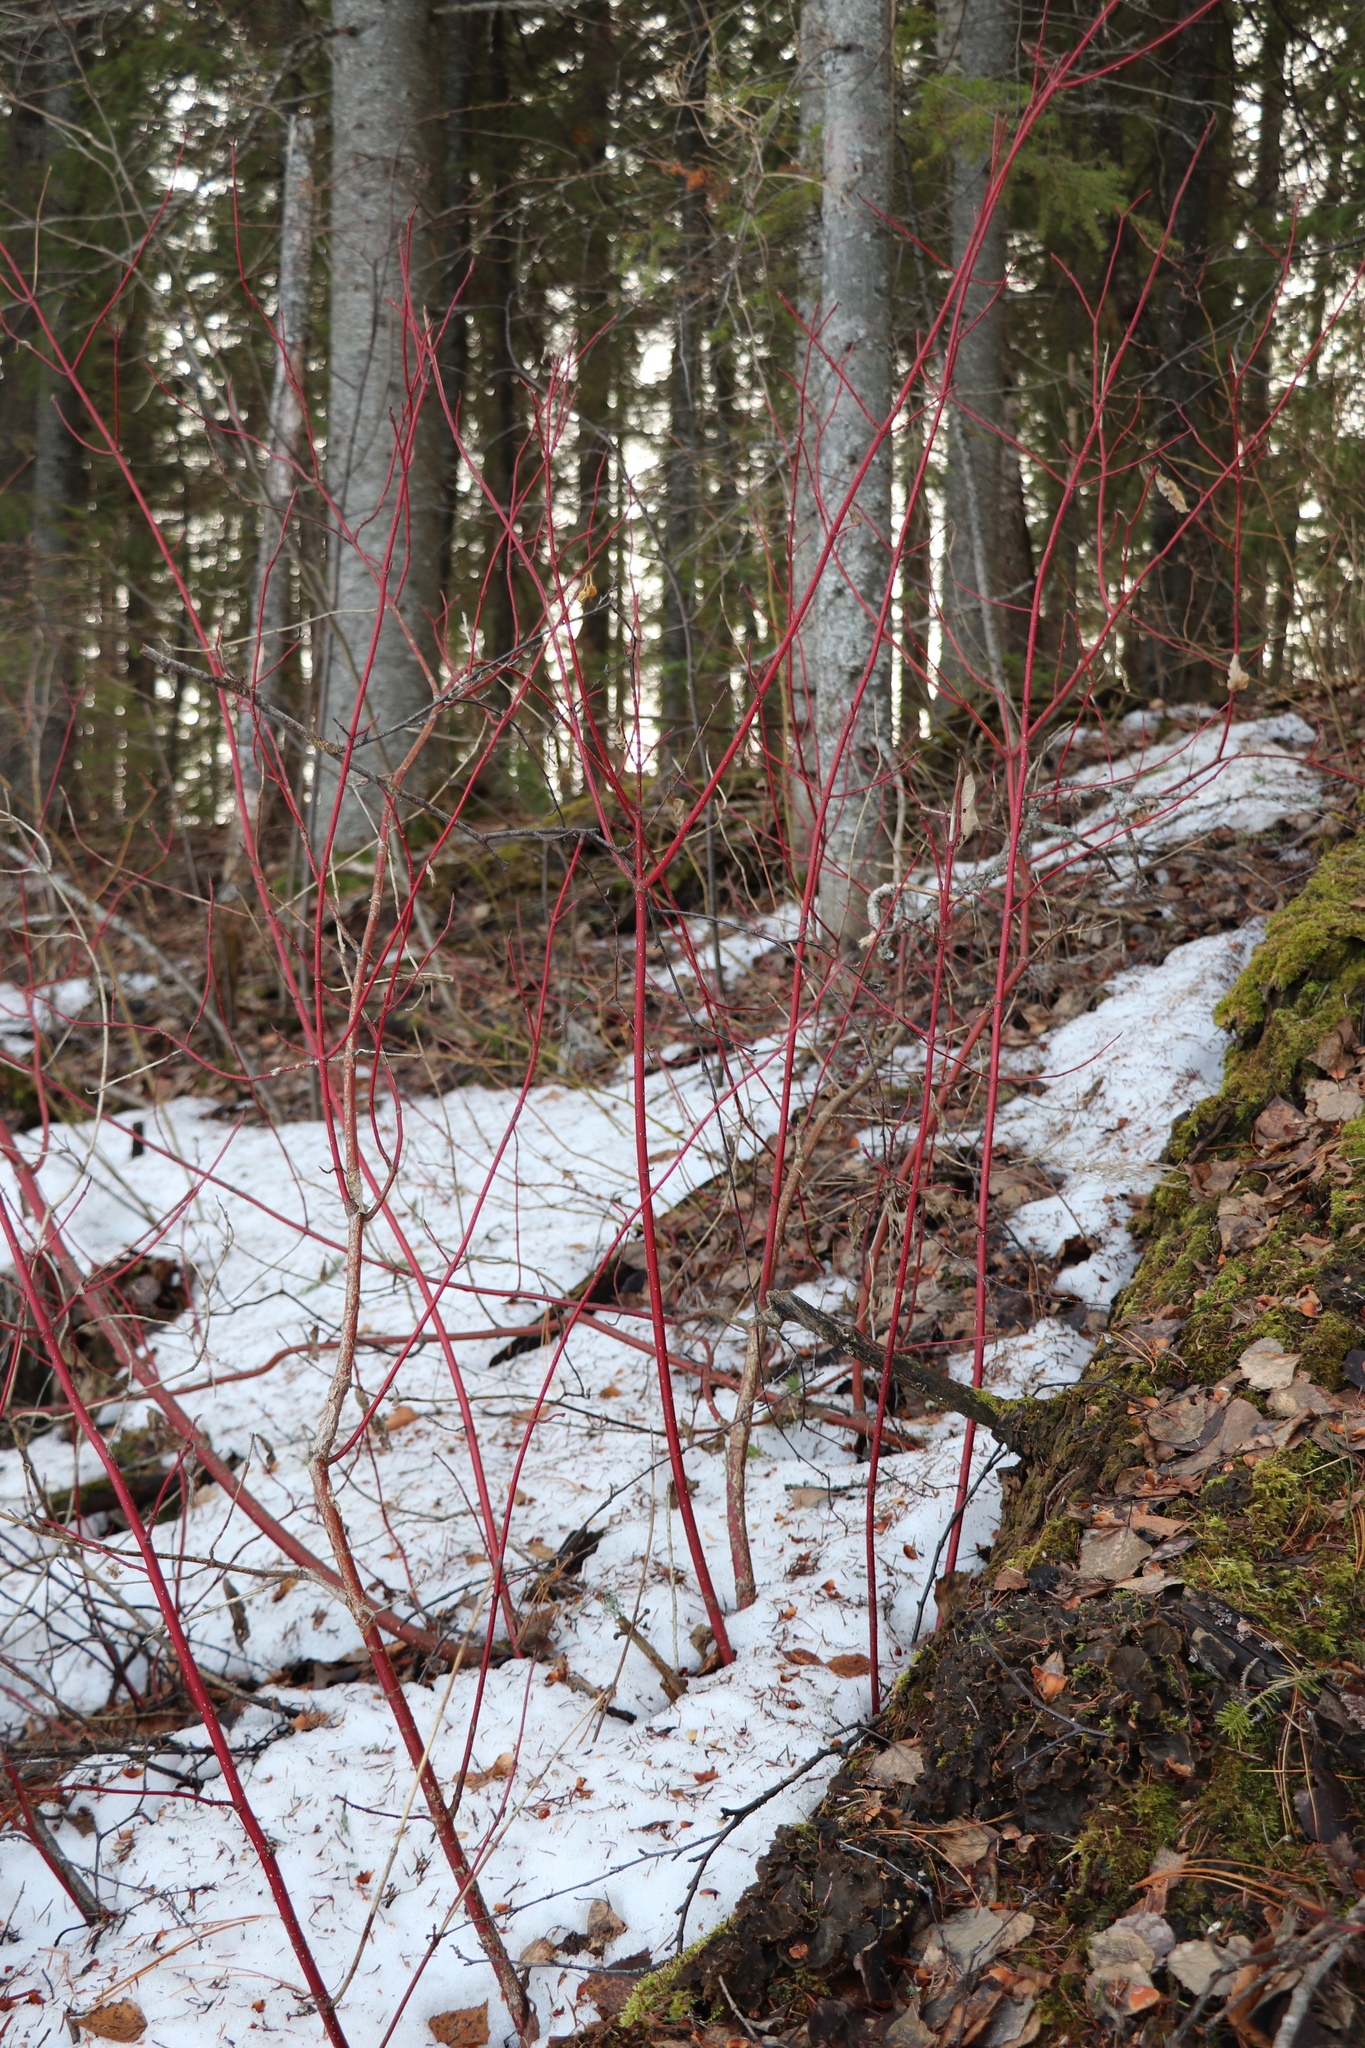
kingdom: Plantae
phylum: Tracheophyta
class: Magnoliopsida
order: Cornales
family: Cornaceae
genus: Cornus
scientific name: Cornus alba
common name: White dogwood
